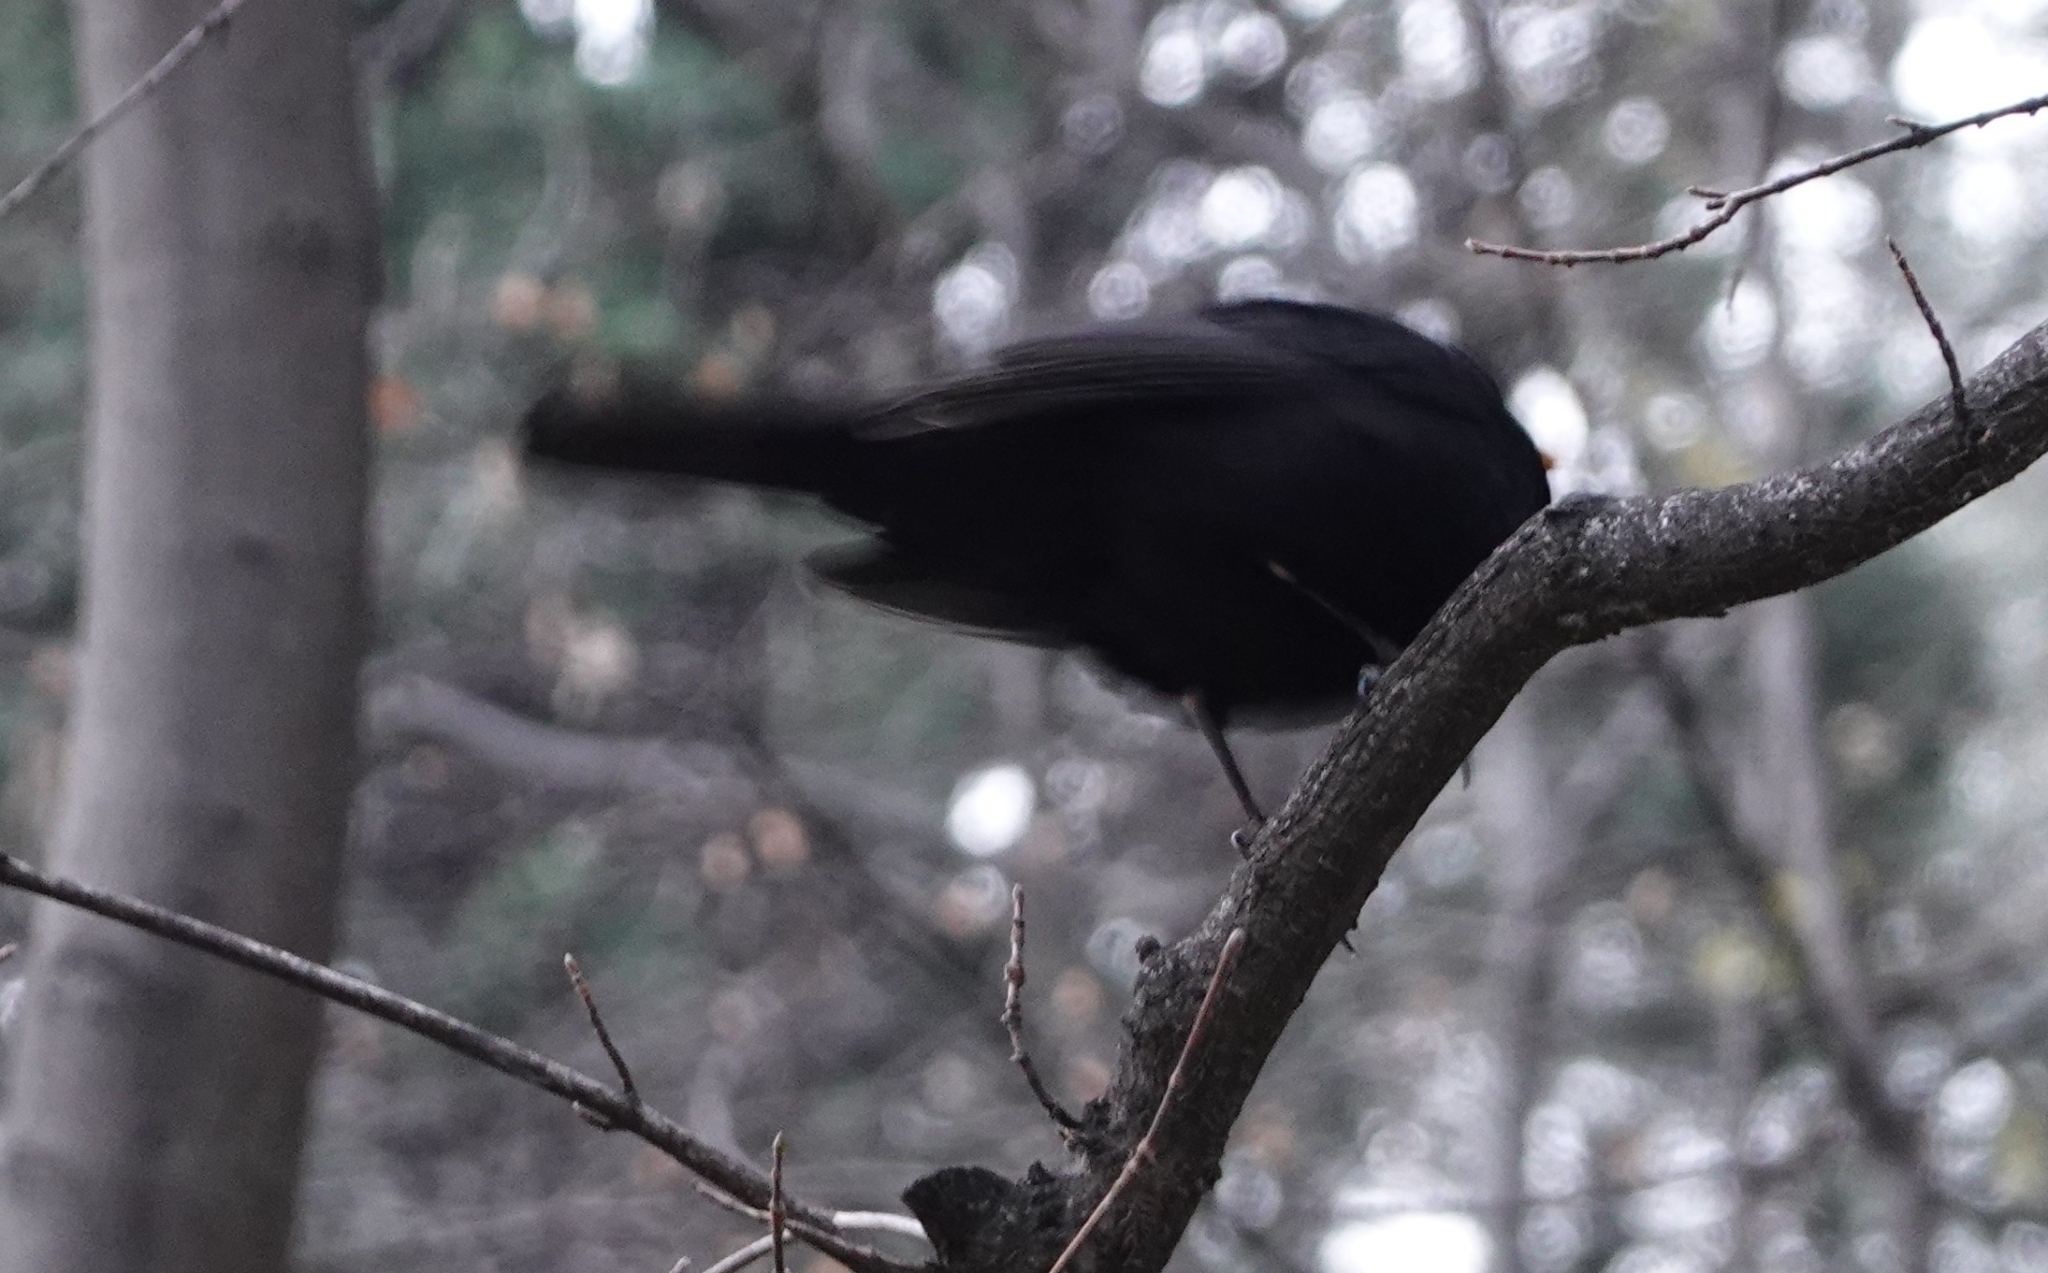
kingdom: Animalia
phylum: Chordata
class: Aves
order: Passeriformes
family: Turdidae
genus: Turdus
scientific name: Turdus merula
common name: Common blackbird
